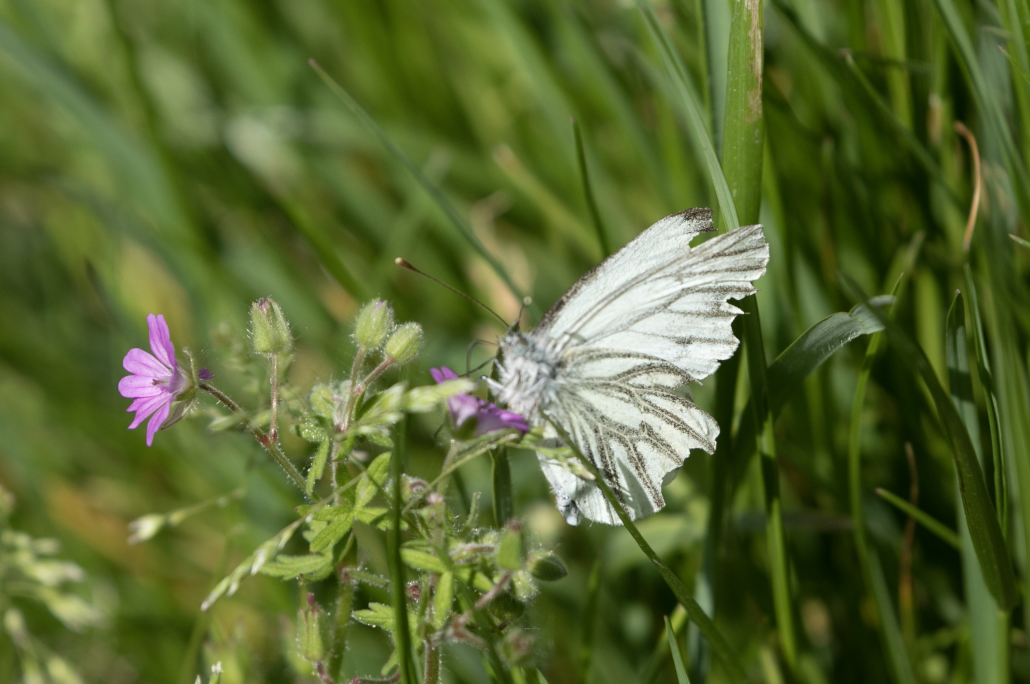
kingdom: Animalia
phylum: Arthropoda
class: Insecta
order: Lepidoptera
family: Pieridae
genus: Pieris
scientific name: Pieris napi
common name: Green-veined white
